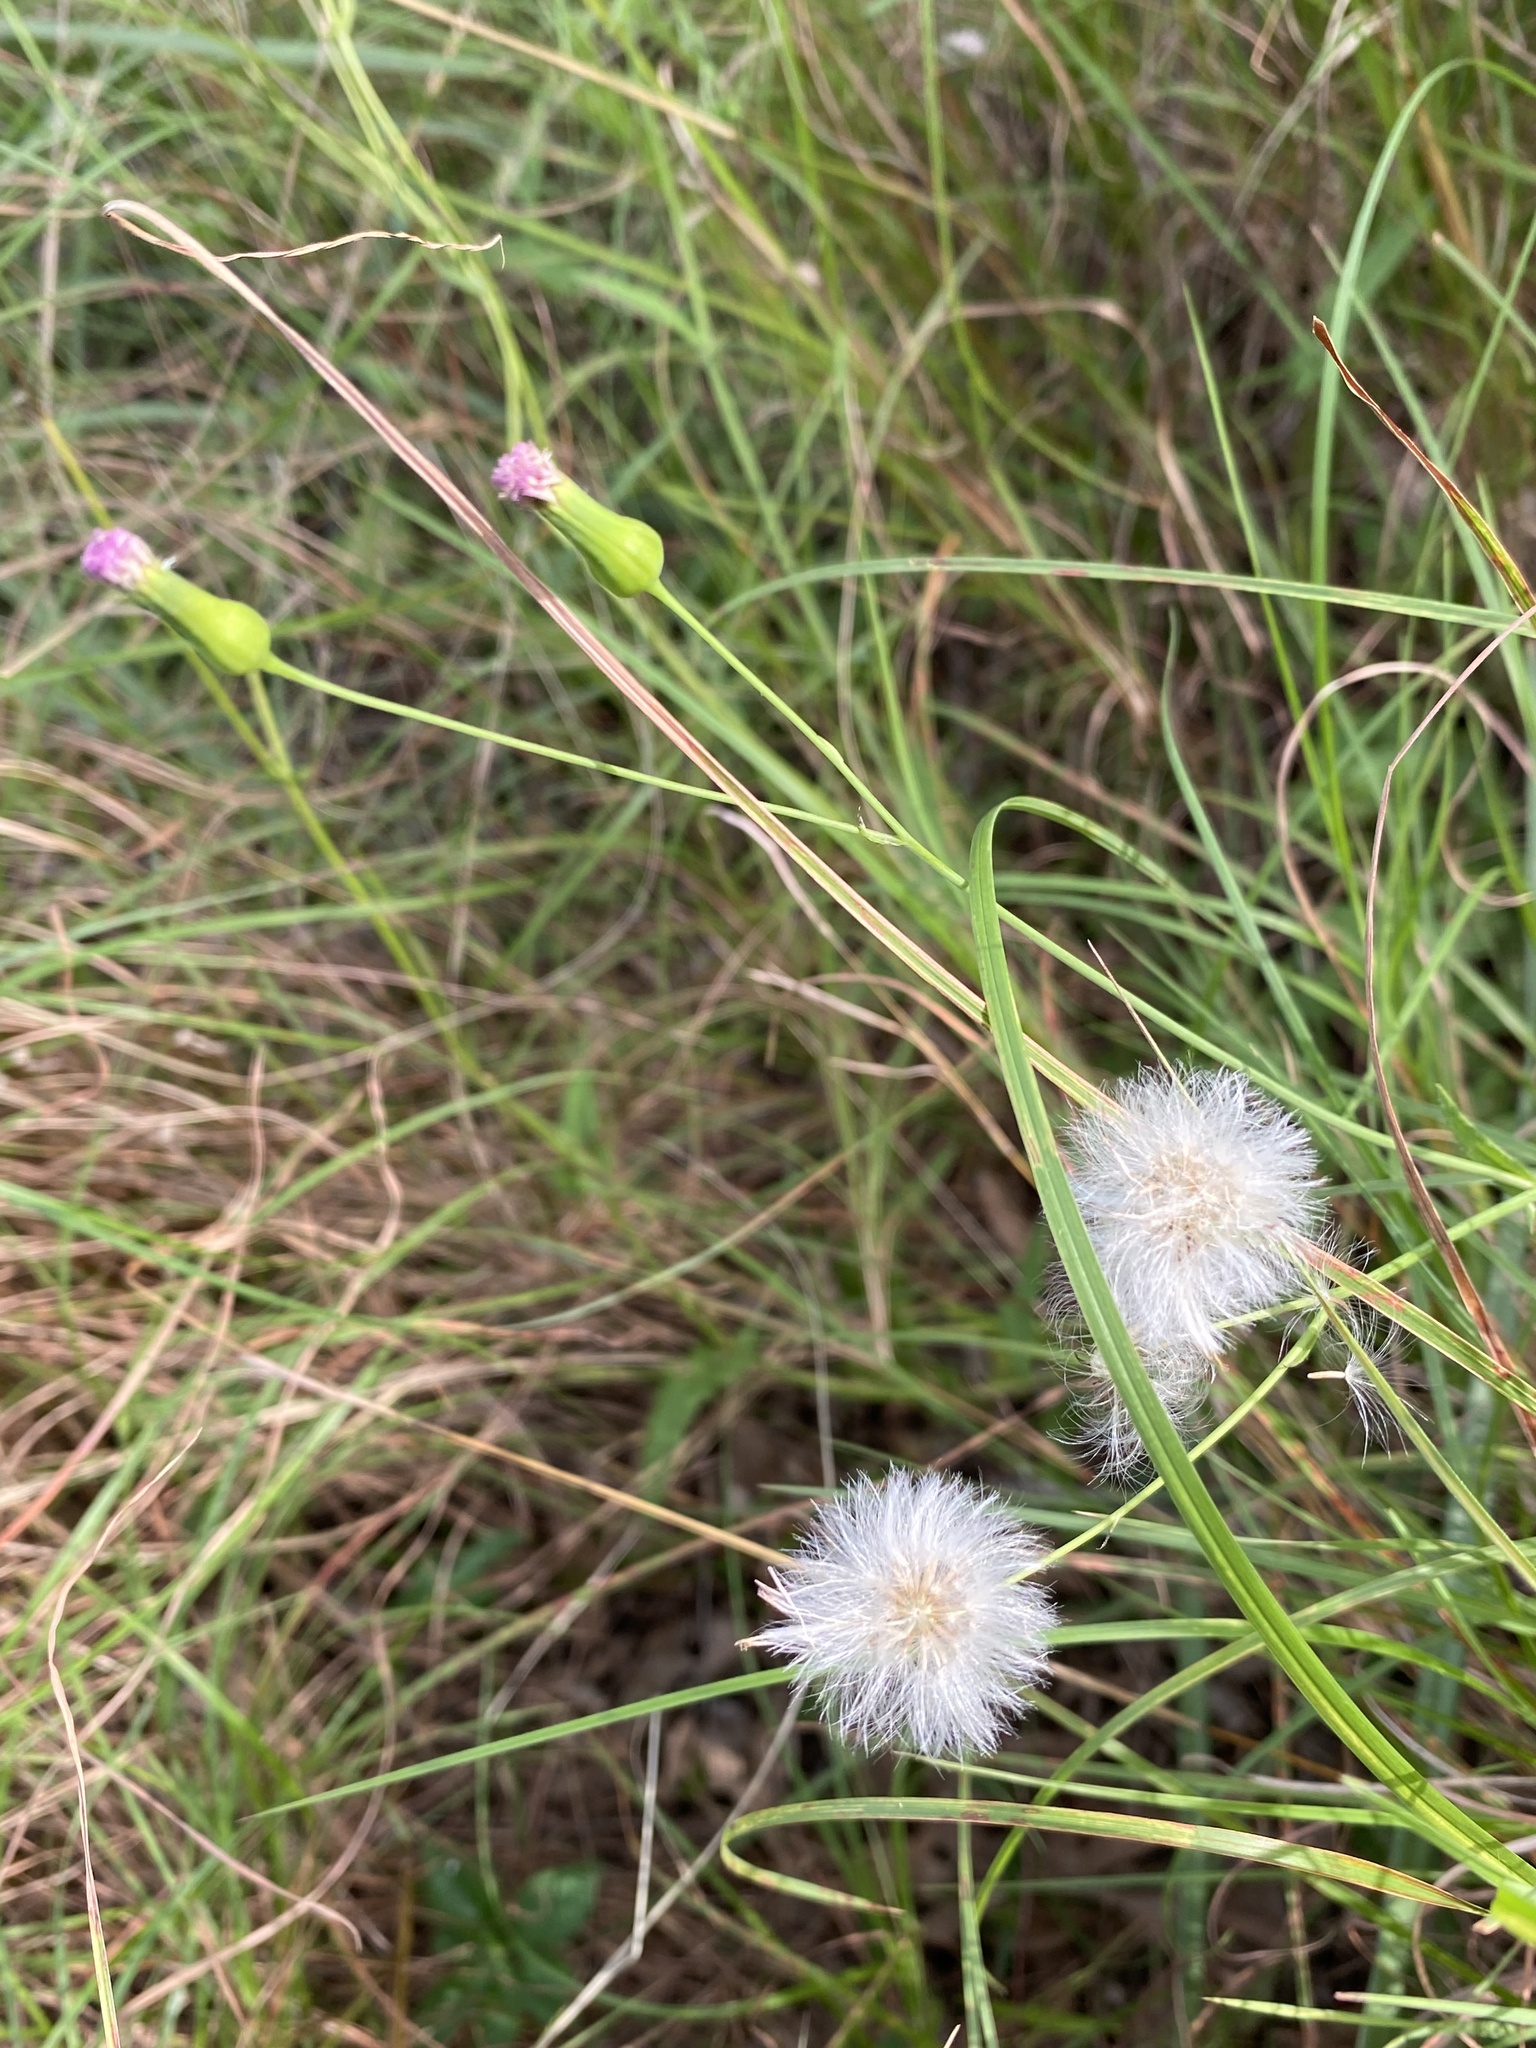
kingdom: Plantae
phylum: Tracheophyta
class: Magnoliopsida
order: Asterales
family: Asteraceae
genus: Emilia
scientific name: Emilia javanica
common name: Tassel-flower
